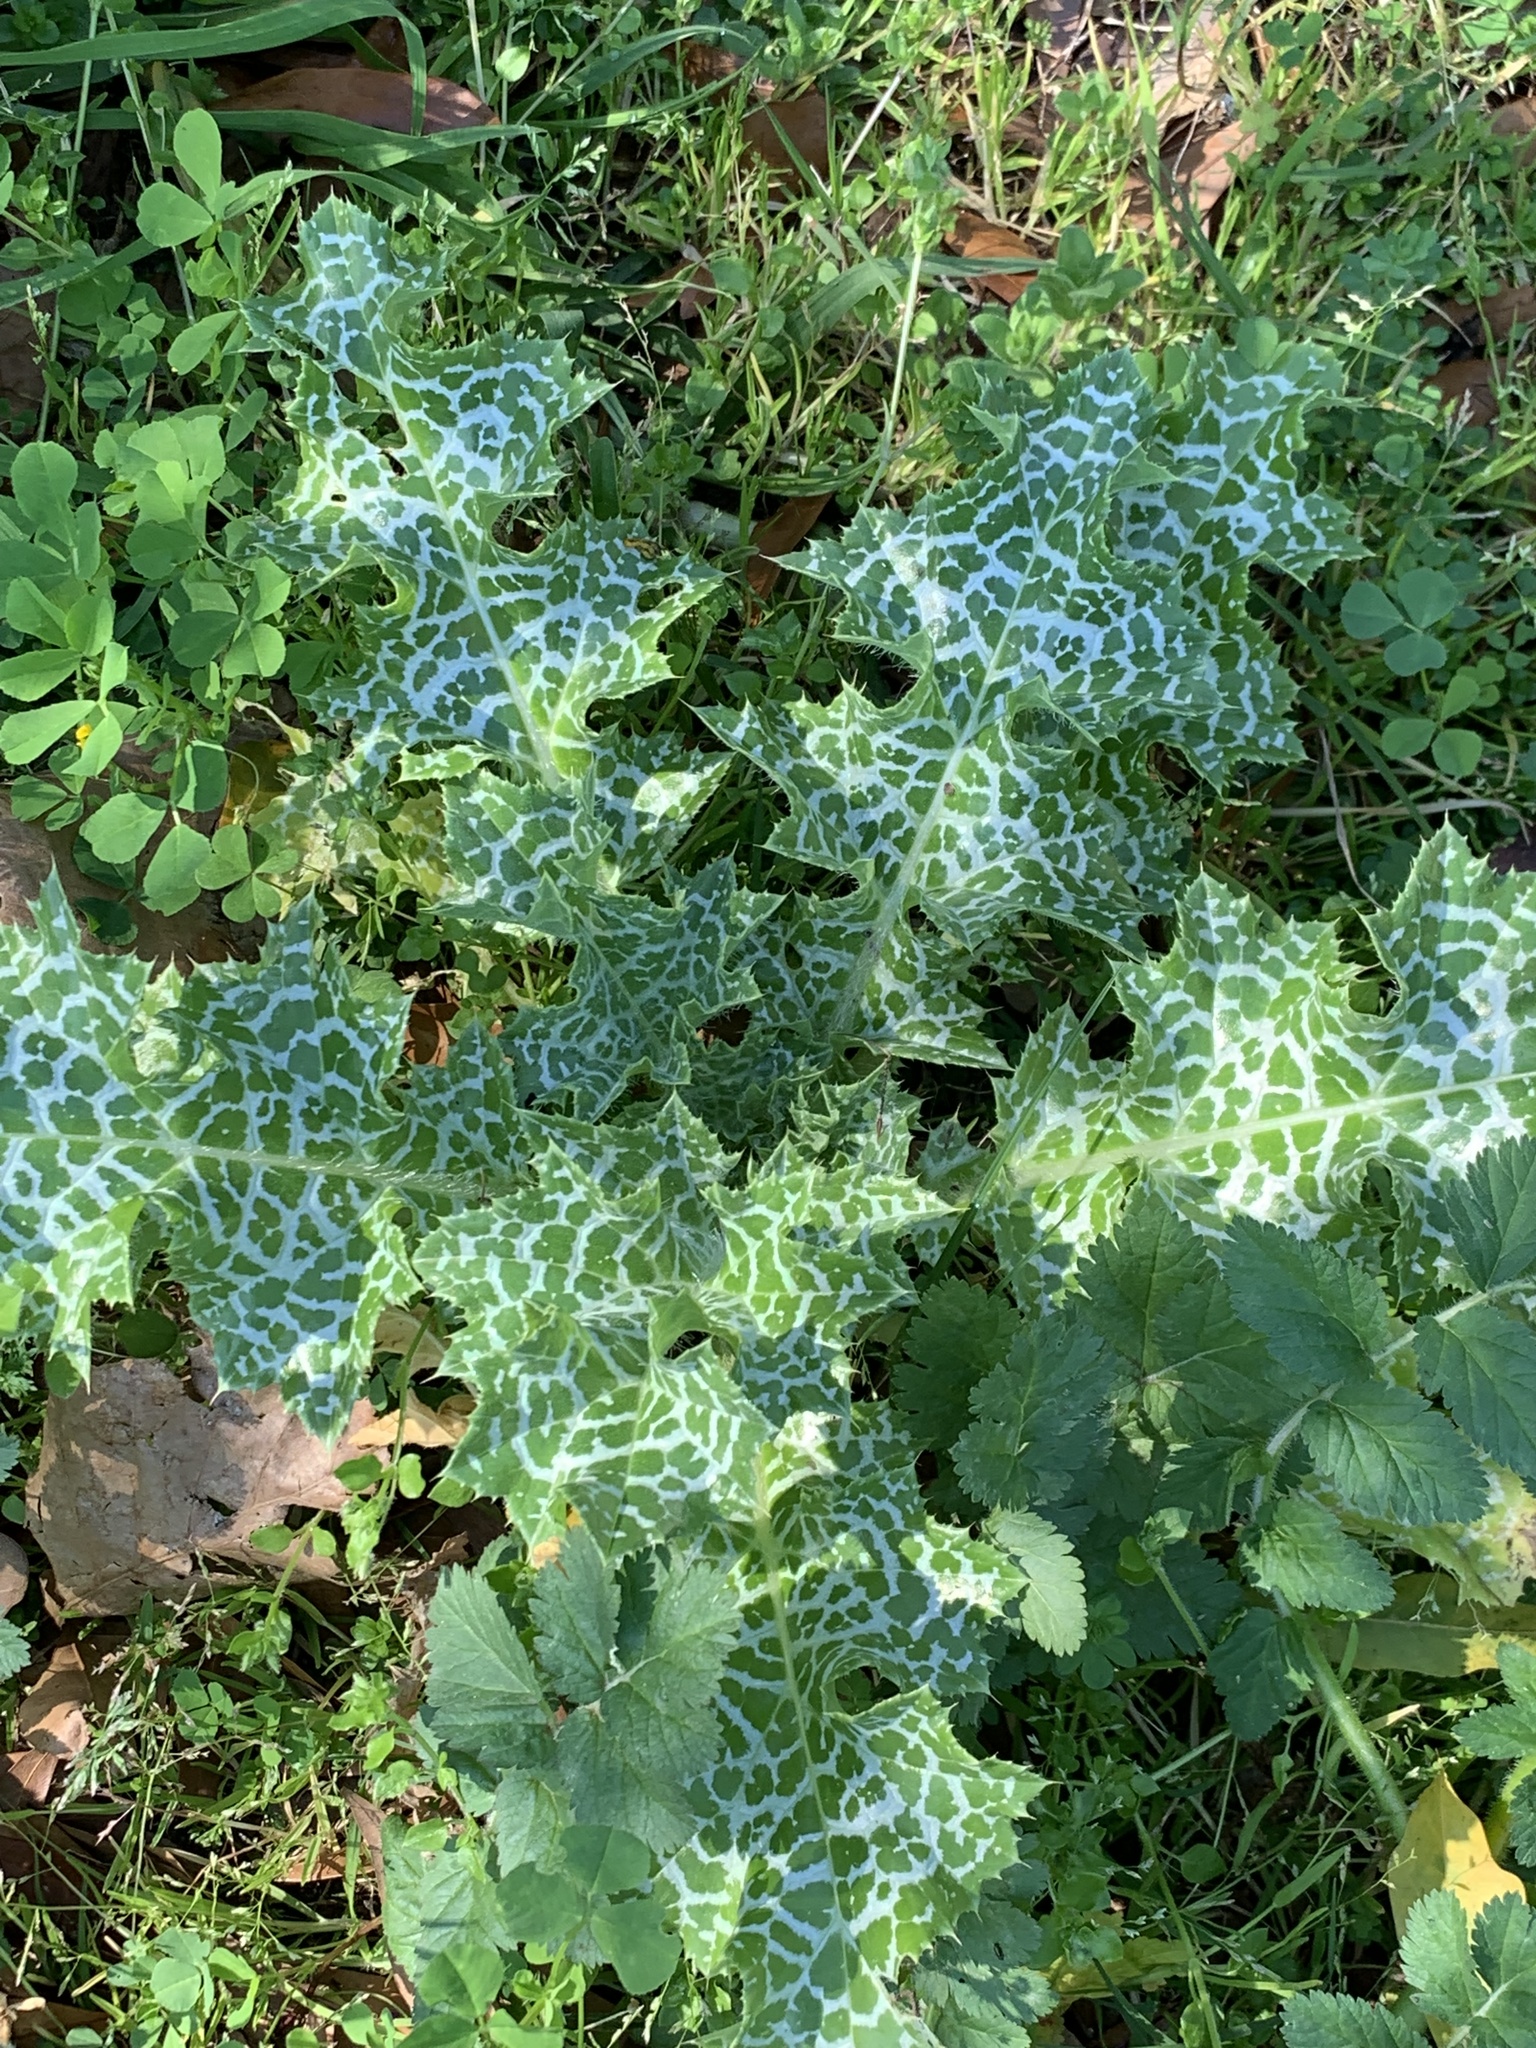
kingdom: Plantae
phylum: Tracheophyta
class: Magnoliopsida
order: Asterales
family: Asteraceae
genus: Silybum
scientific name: Silybum marianum
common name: Milk thistle
